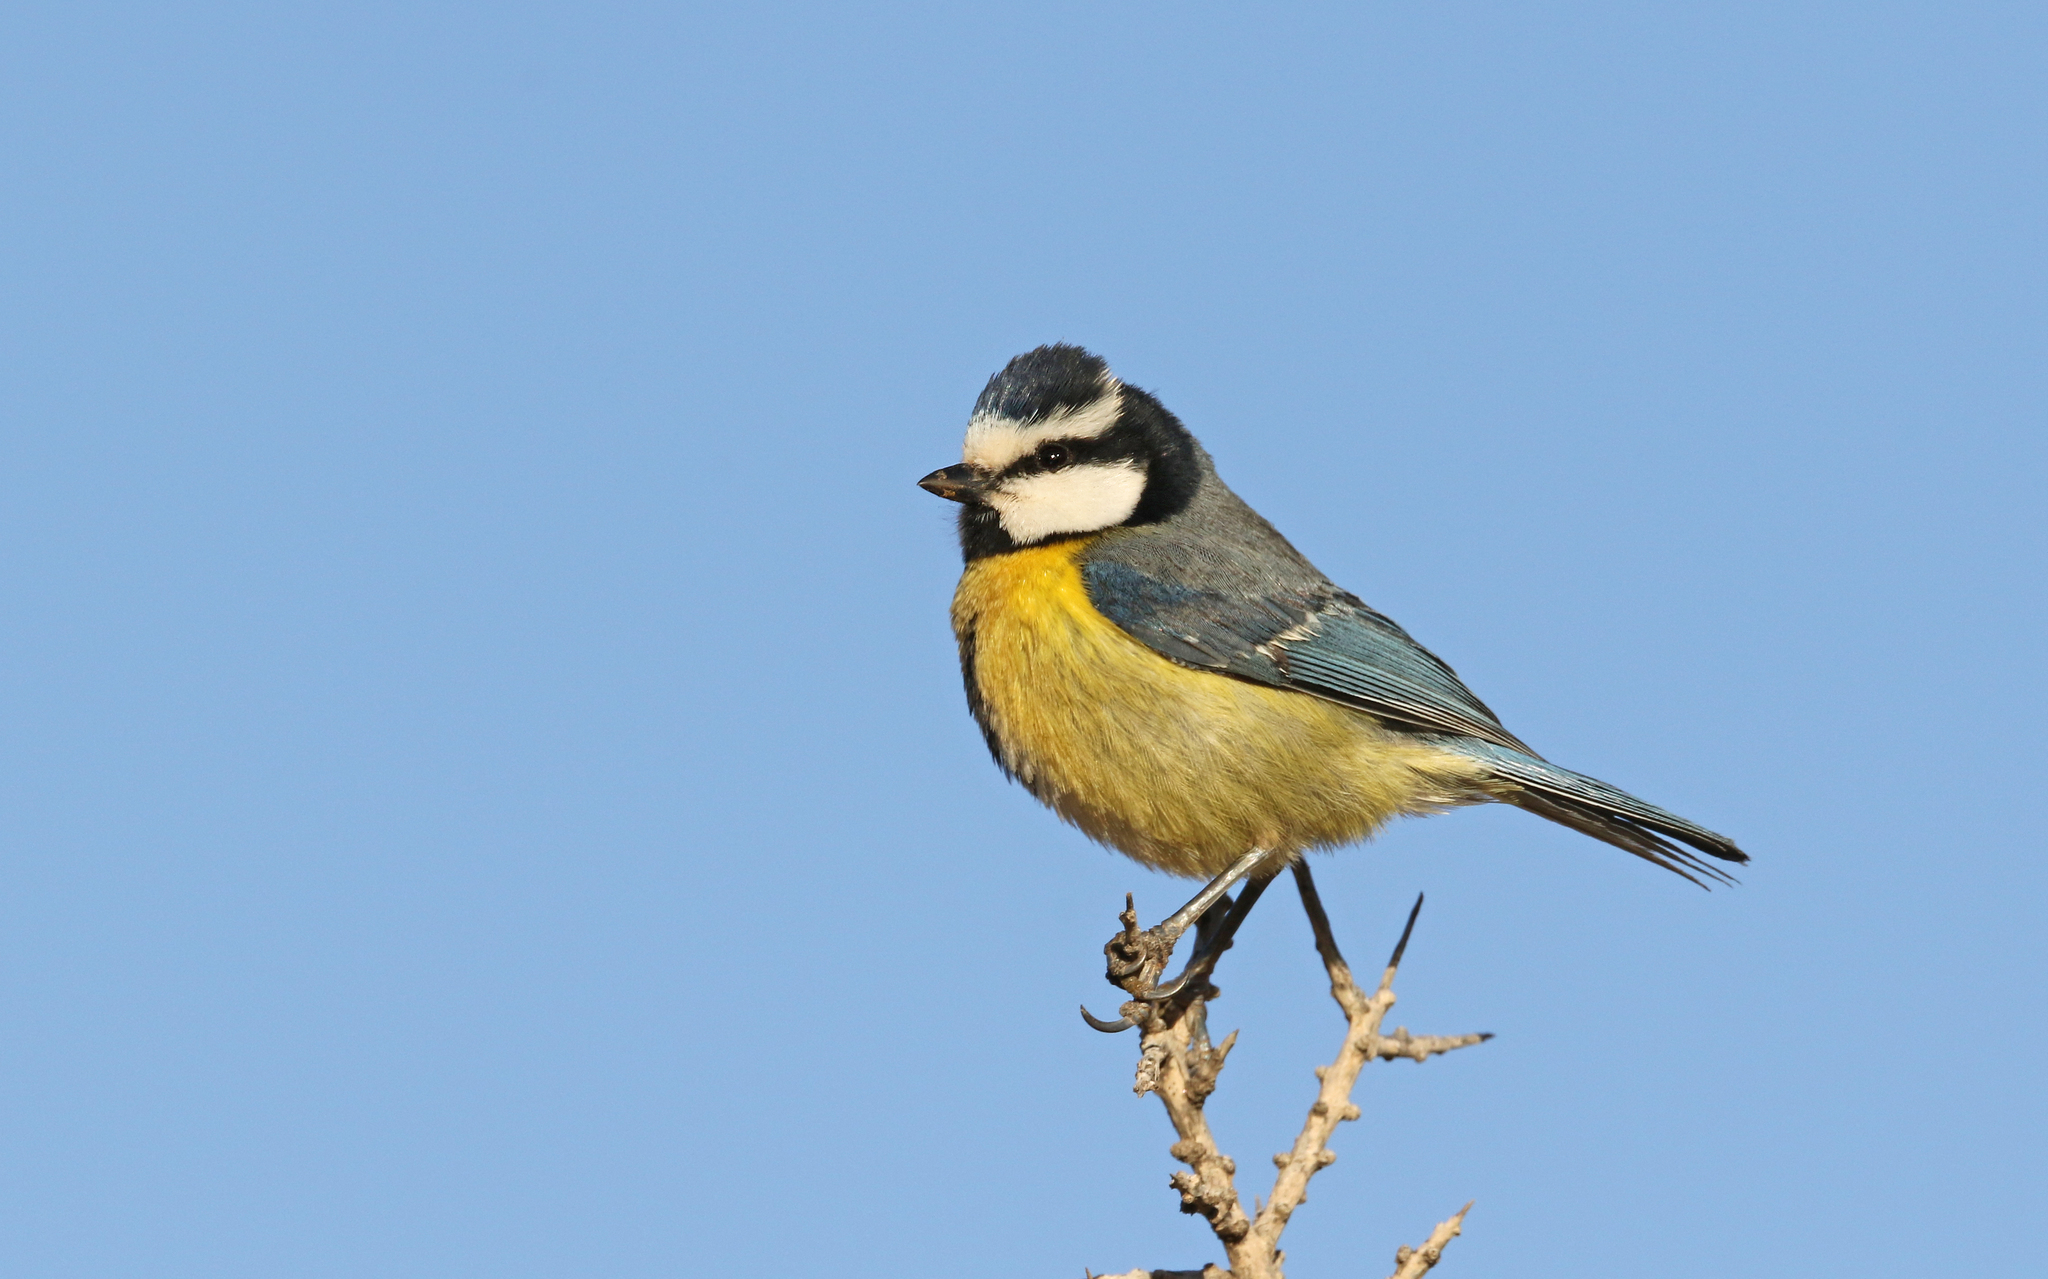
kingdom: Animalia
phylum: Chordata
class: Aves
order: Passeriformes
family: Paridae
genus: Cyanistes
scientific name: Cyanistes teneriffae
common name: African blue tit
